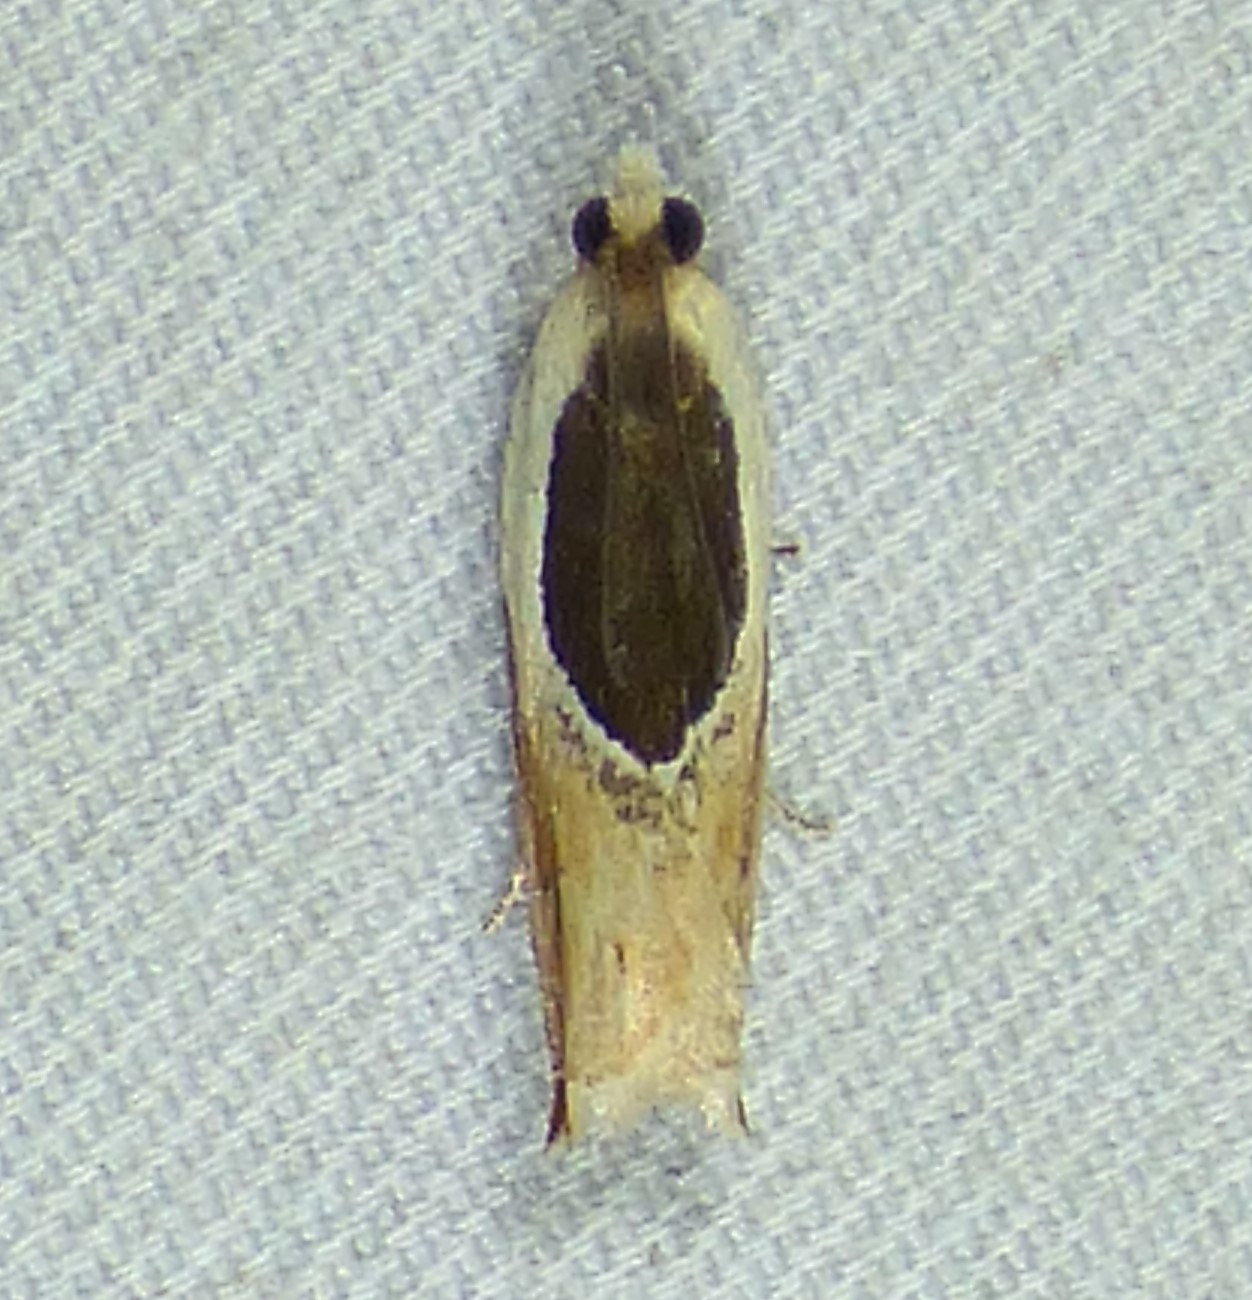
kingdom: Animalia
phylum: Arthropoda
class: Insecta
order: Lepidoptera
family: Tortricidae
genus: Ancylis
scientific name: Ancylis burgessiana
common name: Oak leaffolder moth
